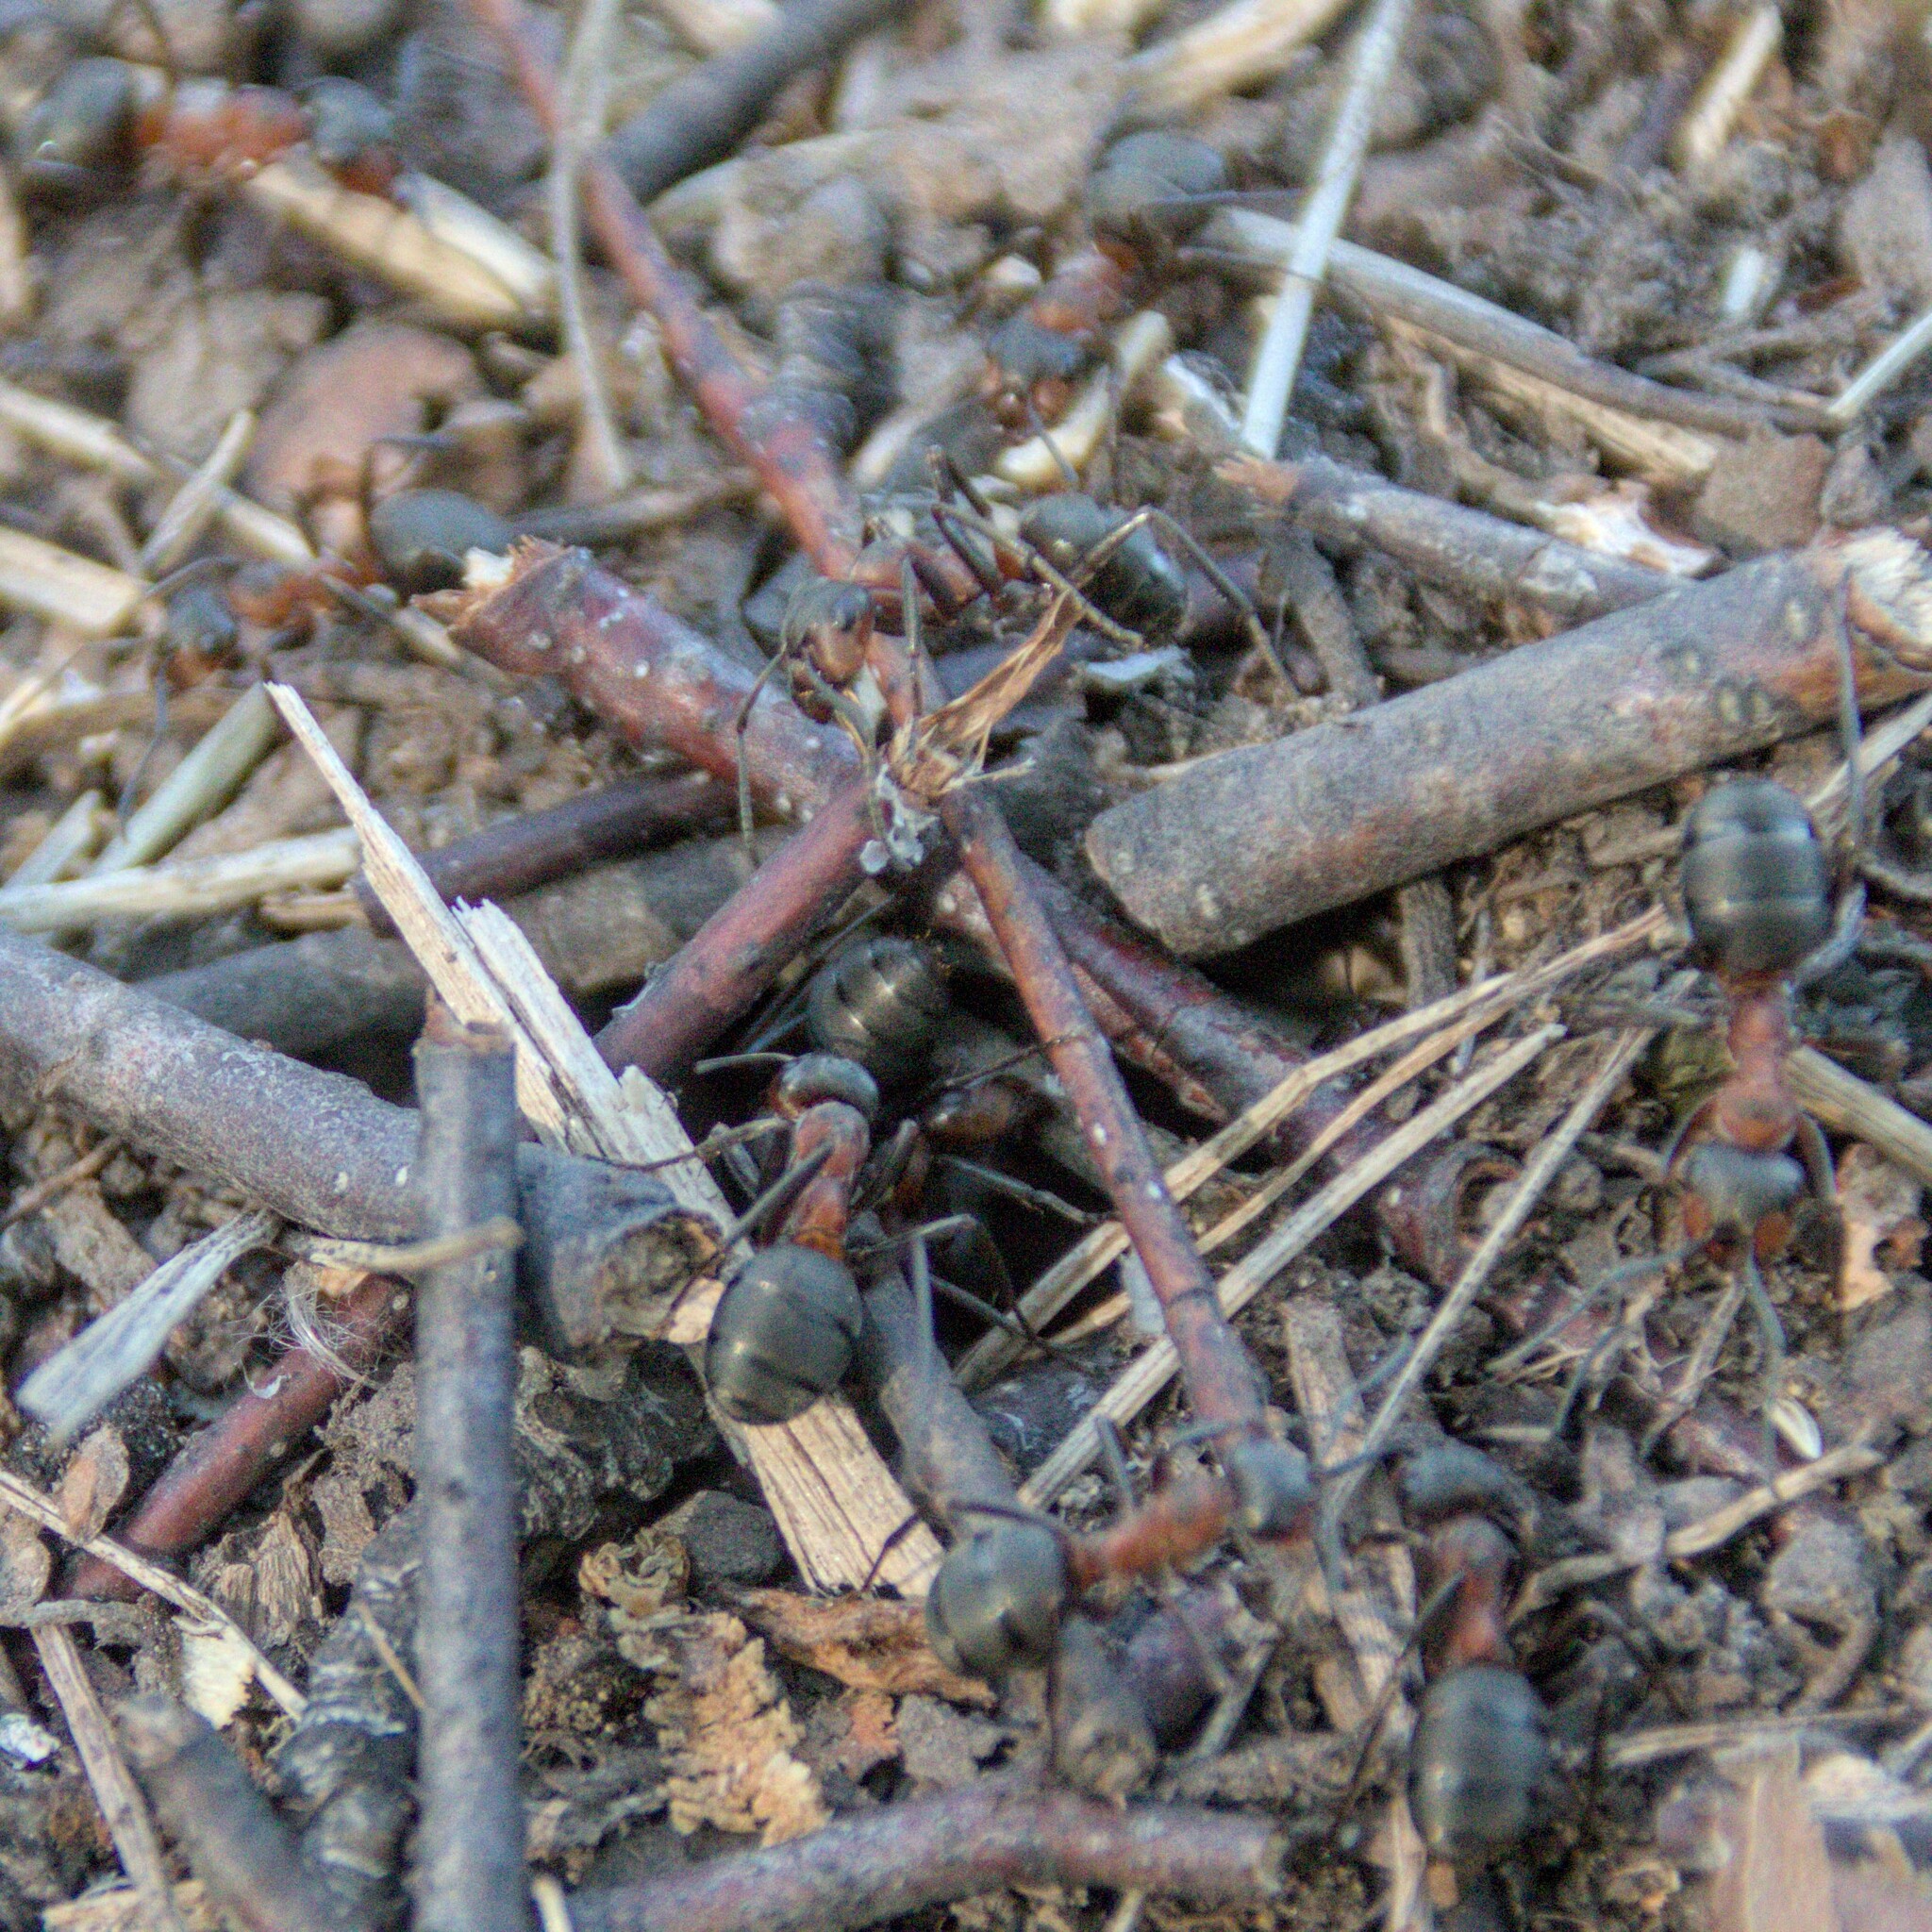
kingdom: Animalia
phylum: Arthropoda
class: Insecta
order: Hymenoptera
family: Formicidae
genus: Formica
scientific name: Formica
